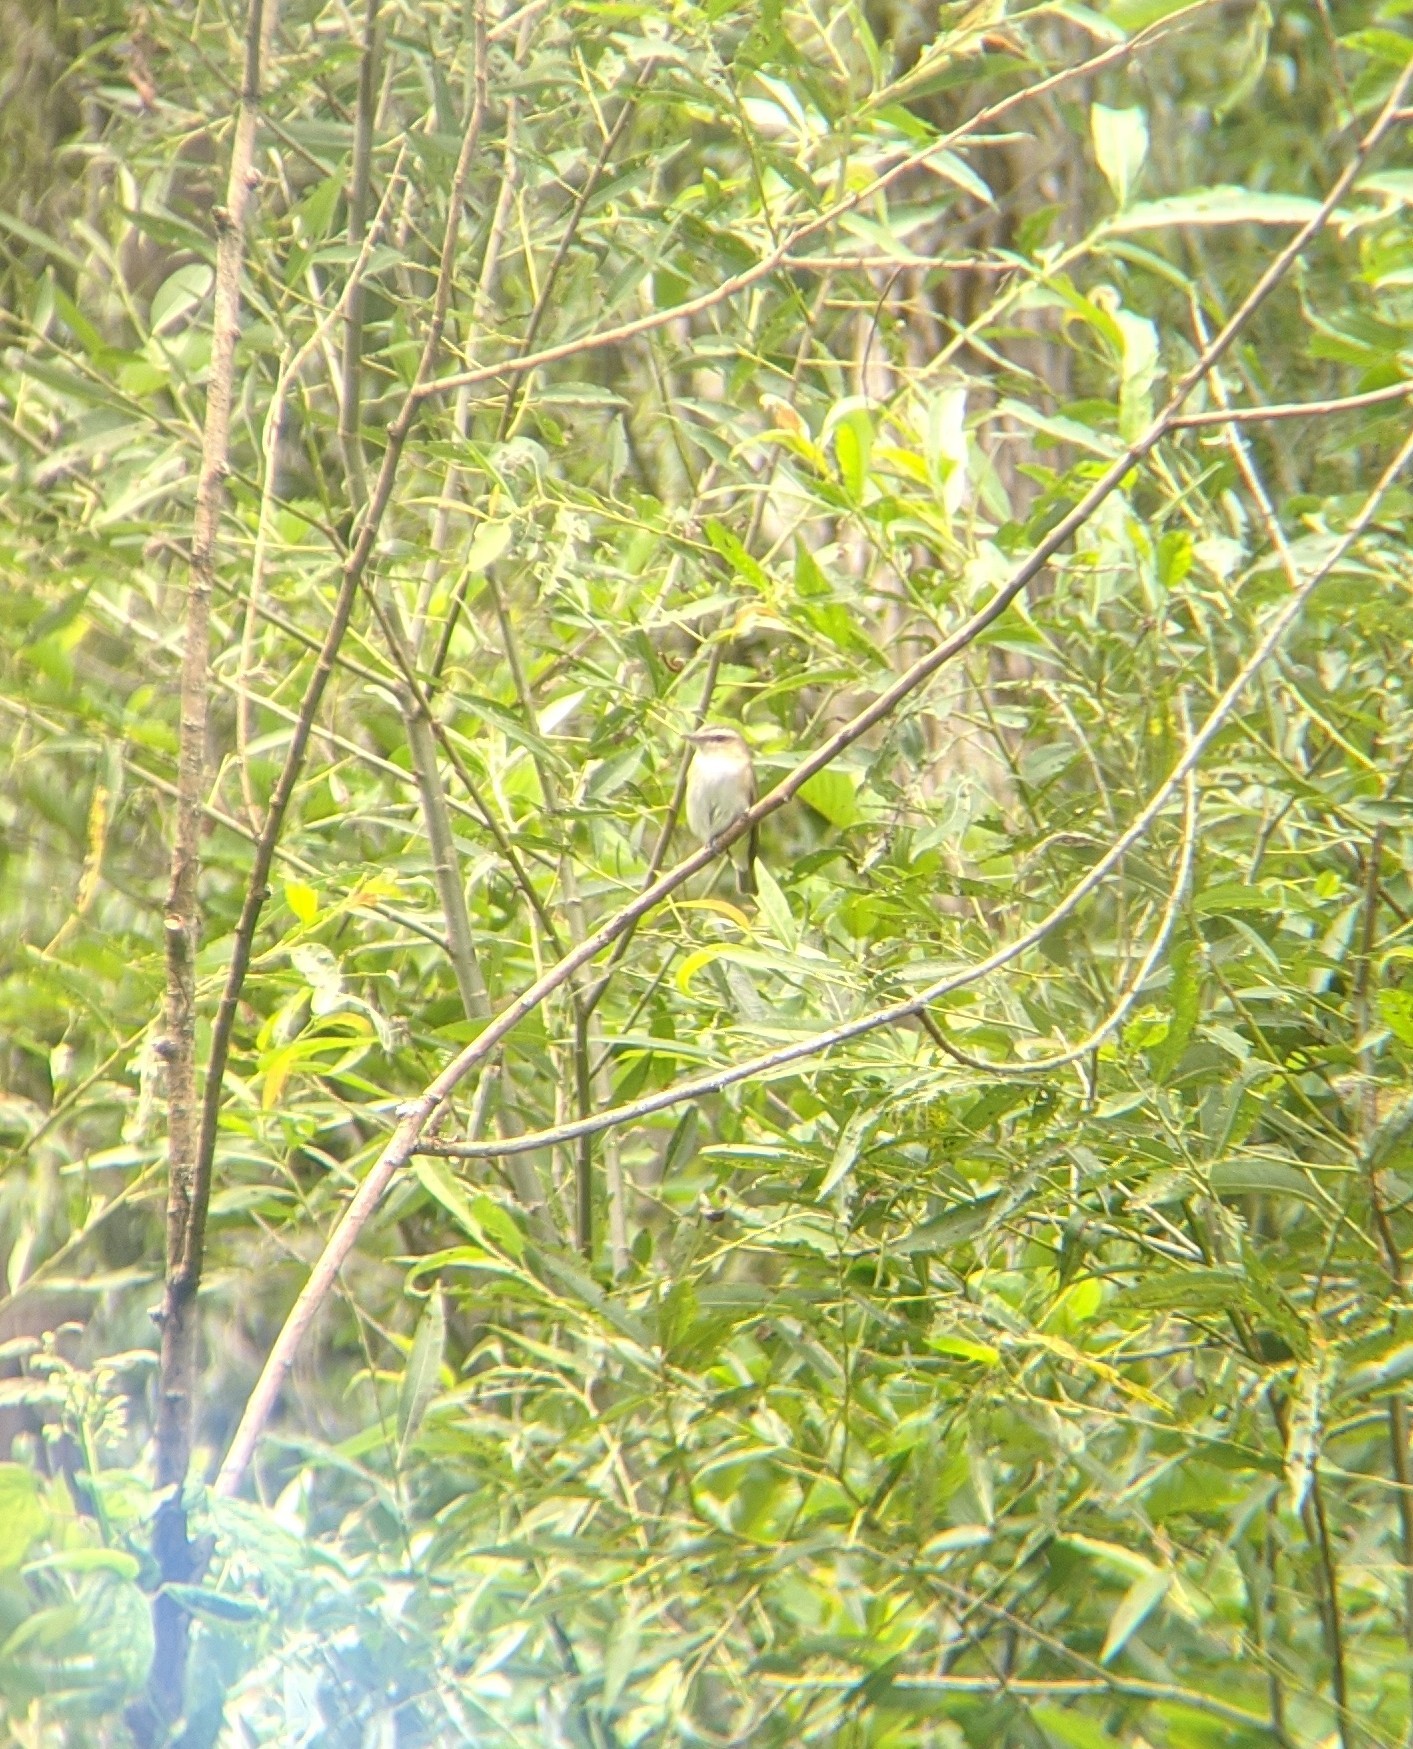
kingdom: Animalia
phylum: Chordata
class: Aves
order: Passeriformes
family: Vireonidae
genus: Vireo
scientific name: Vireo olivaceus
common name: Red-eyed vireo
